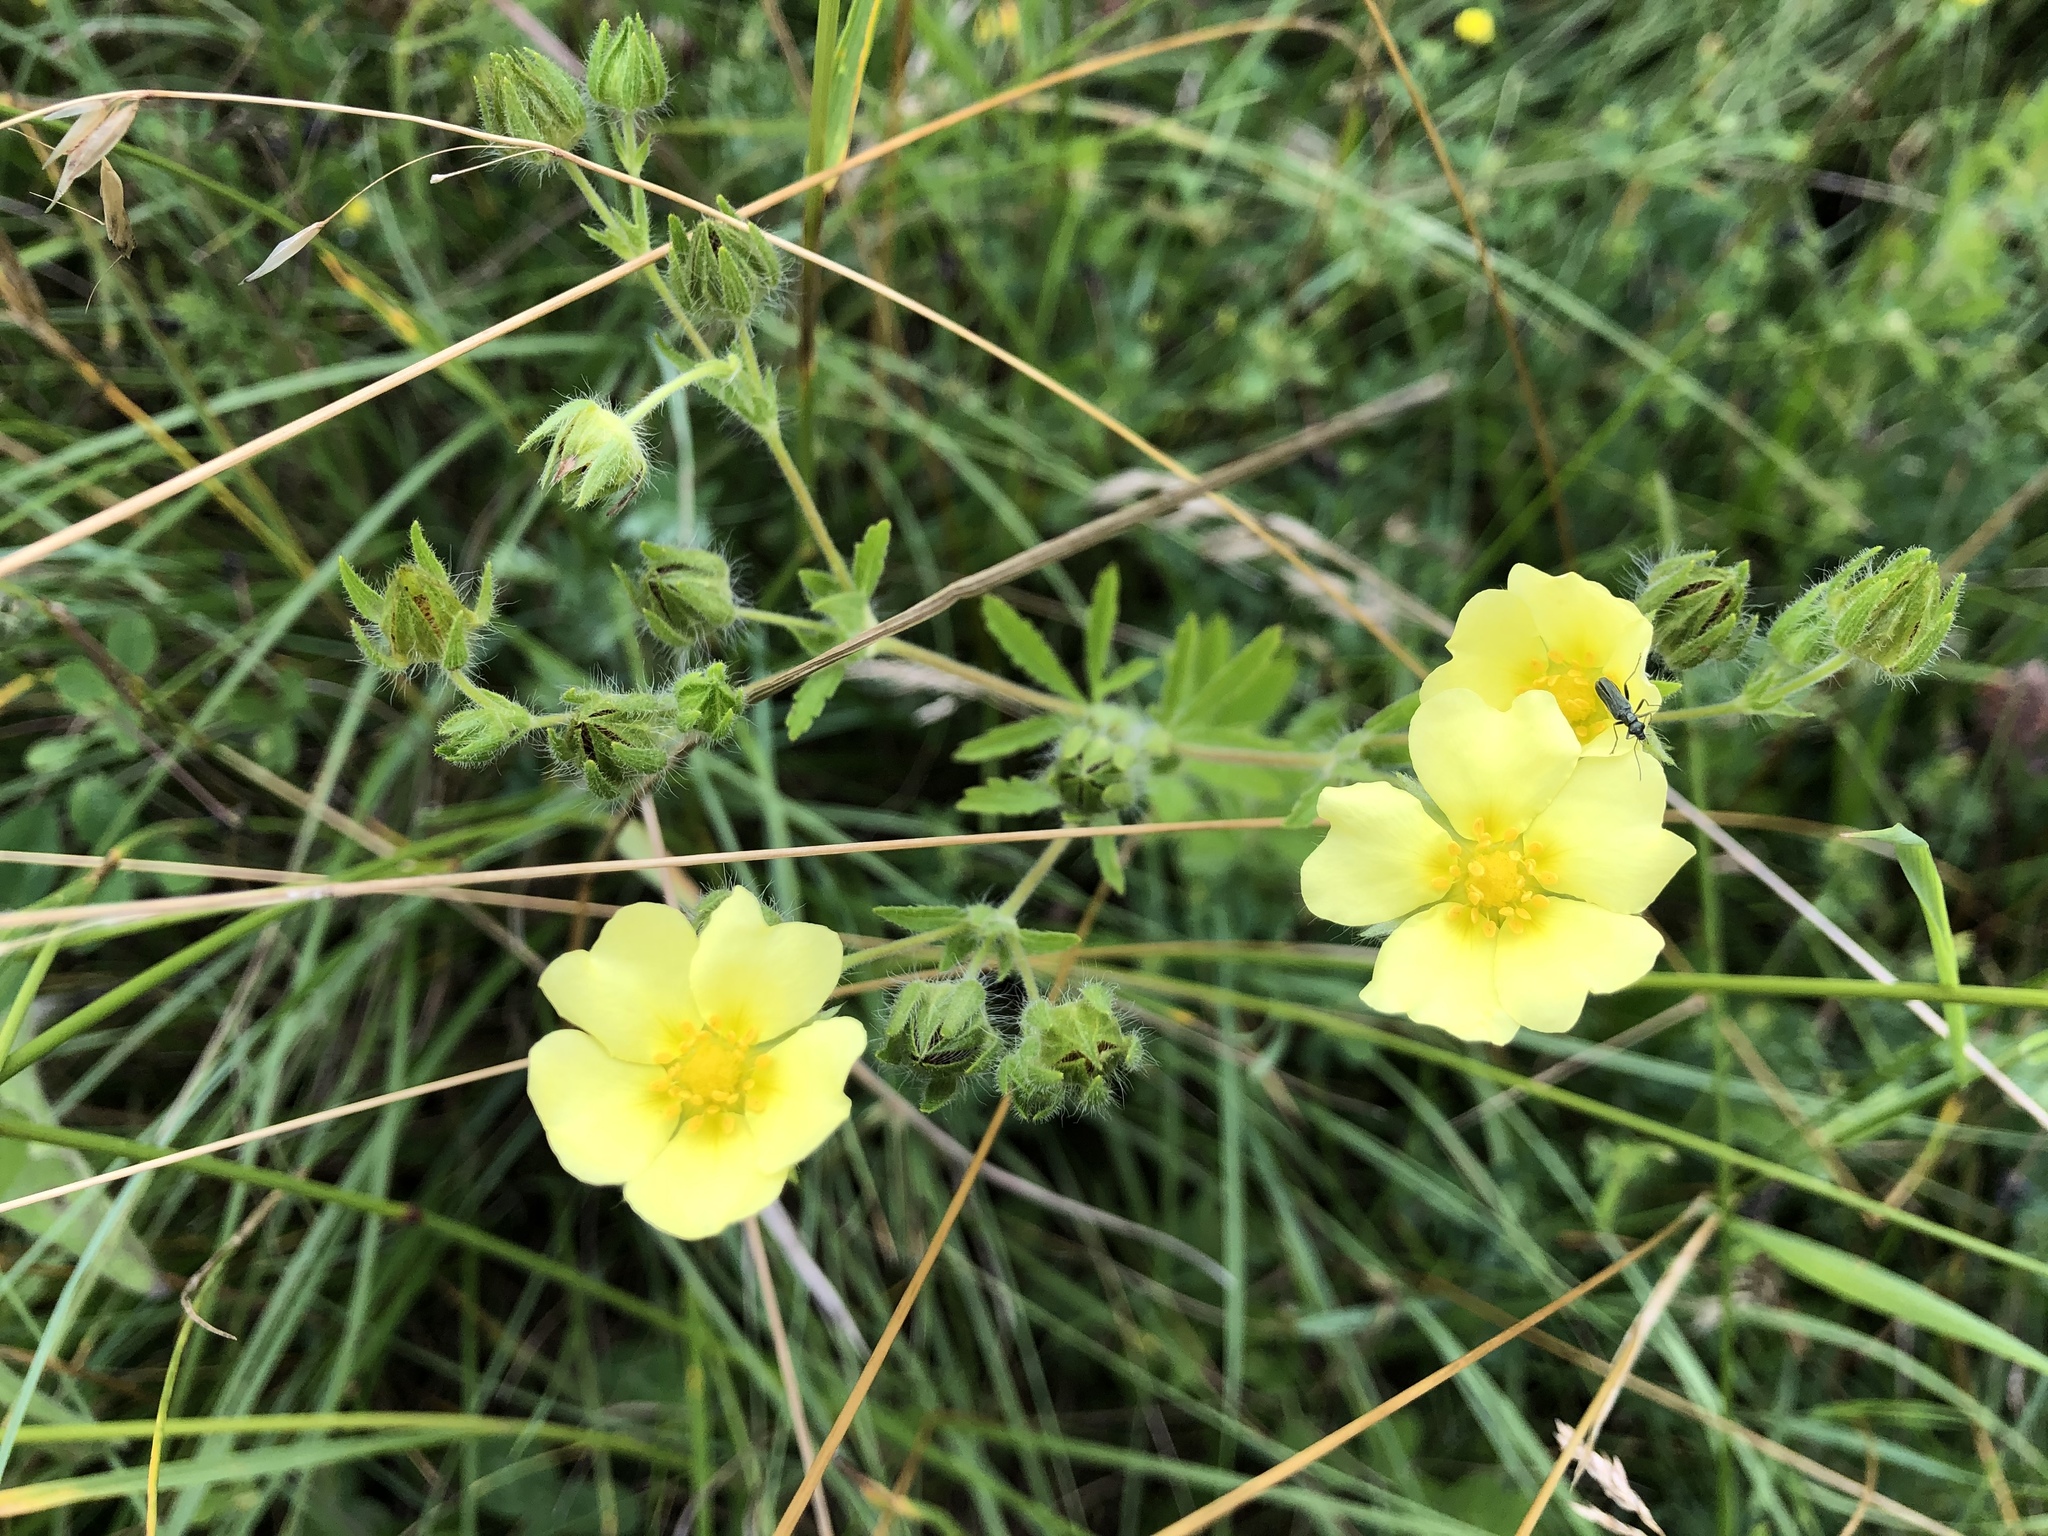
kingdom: Plantae
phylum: Tracheophyta
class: Magnoliopsida
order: Rosales
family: Rosaceae
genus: Potentilla
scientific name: Potentilla recta
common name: Sulphur cinquefoil
